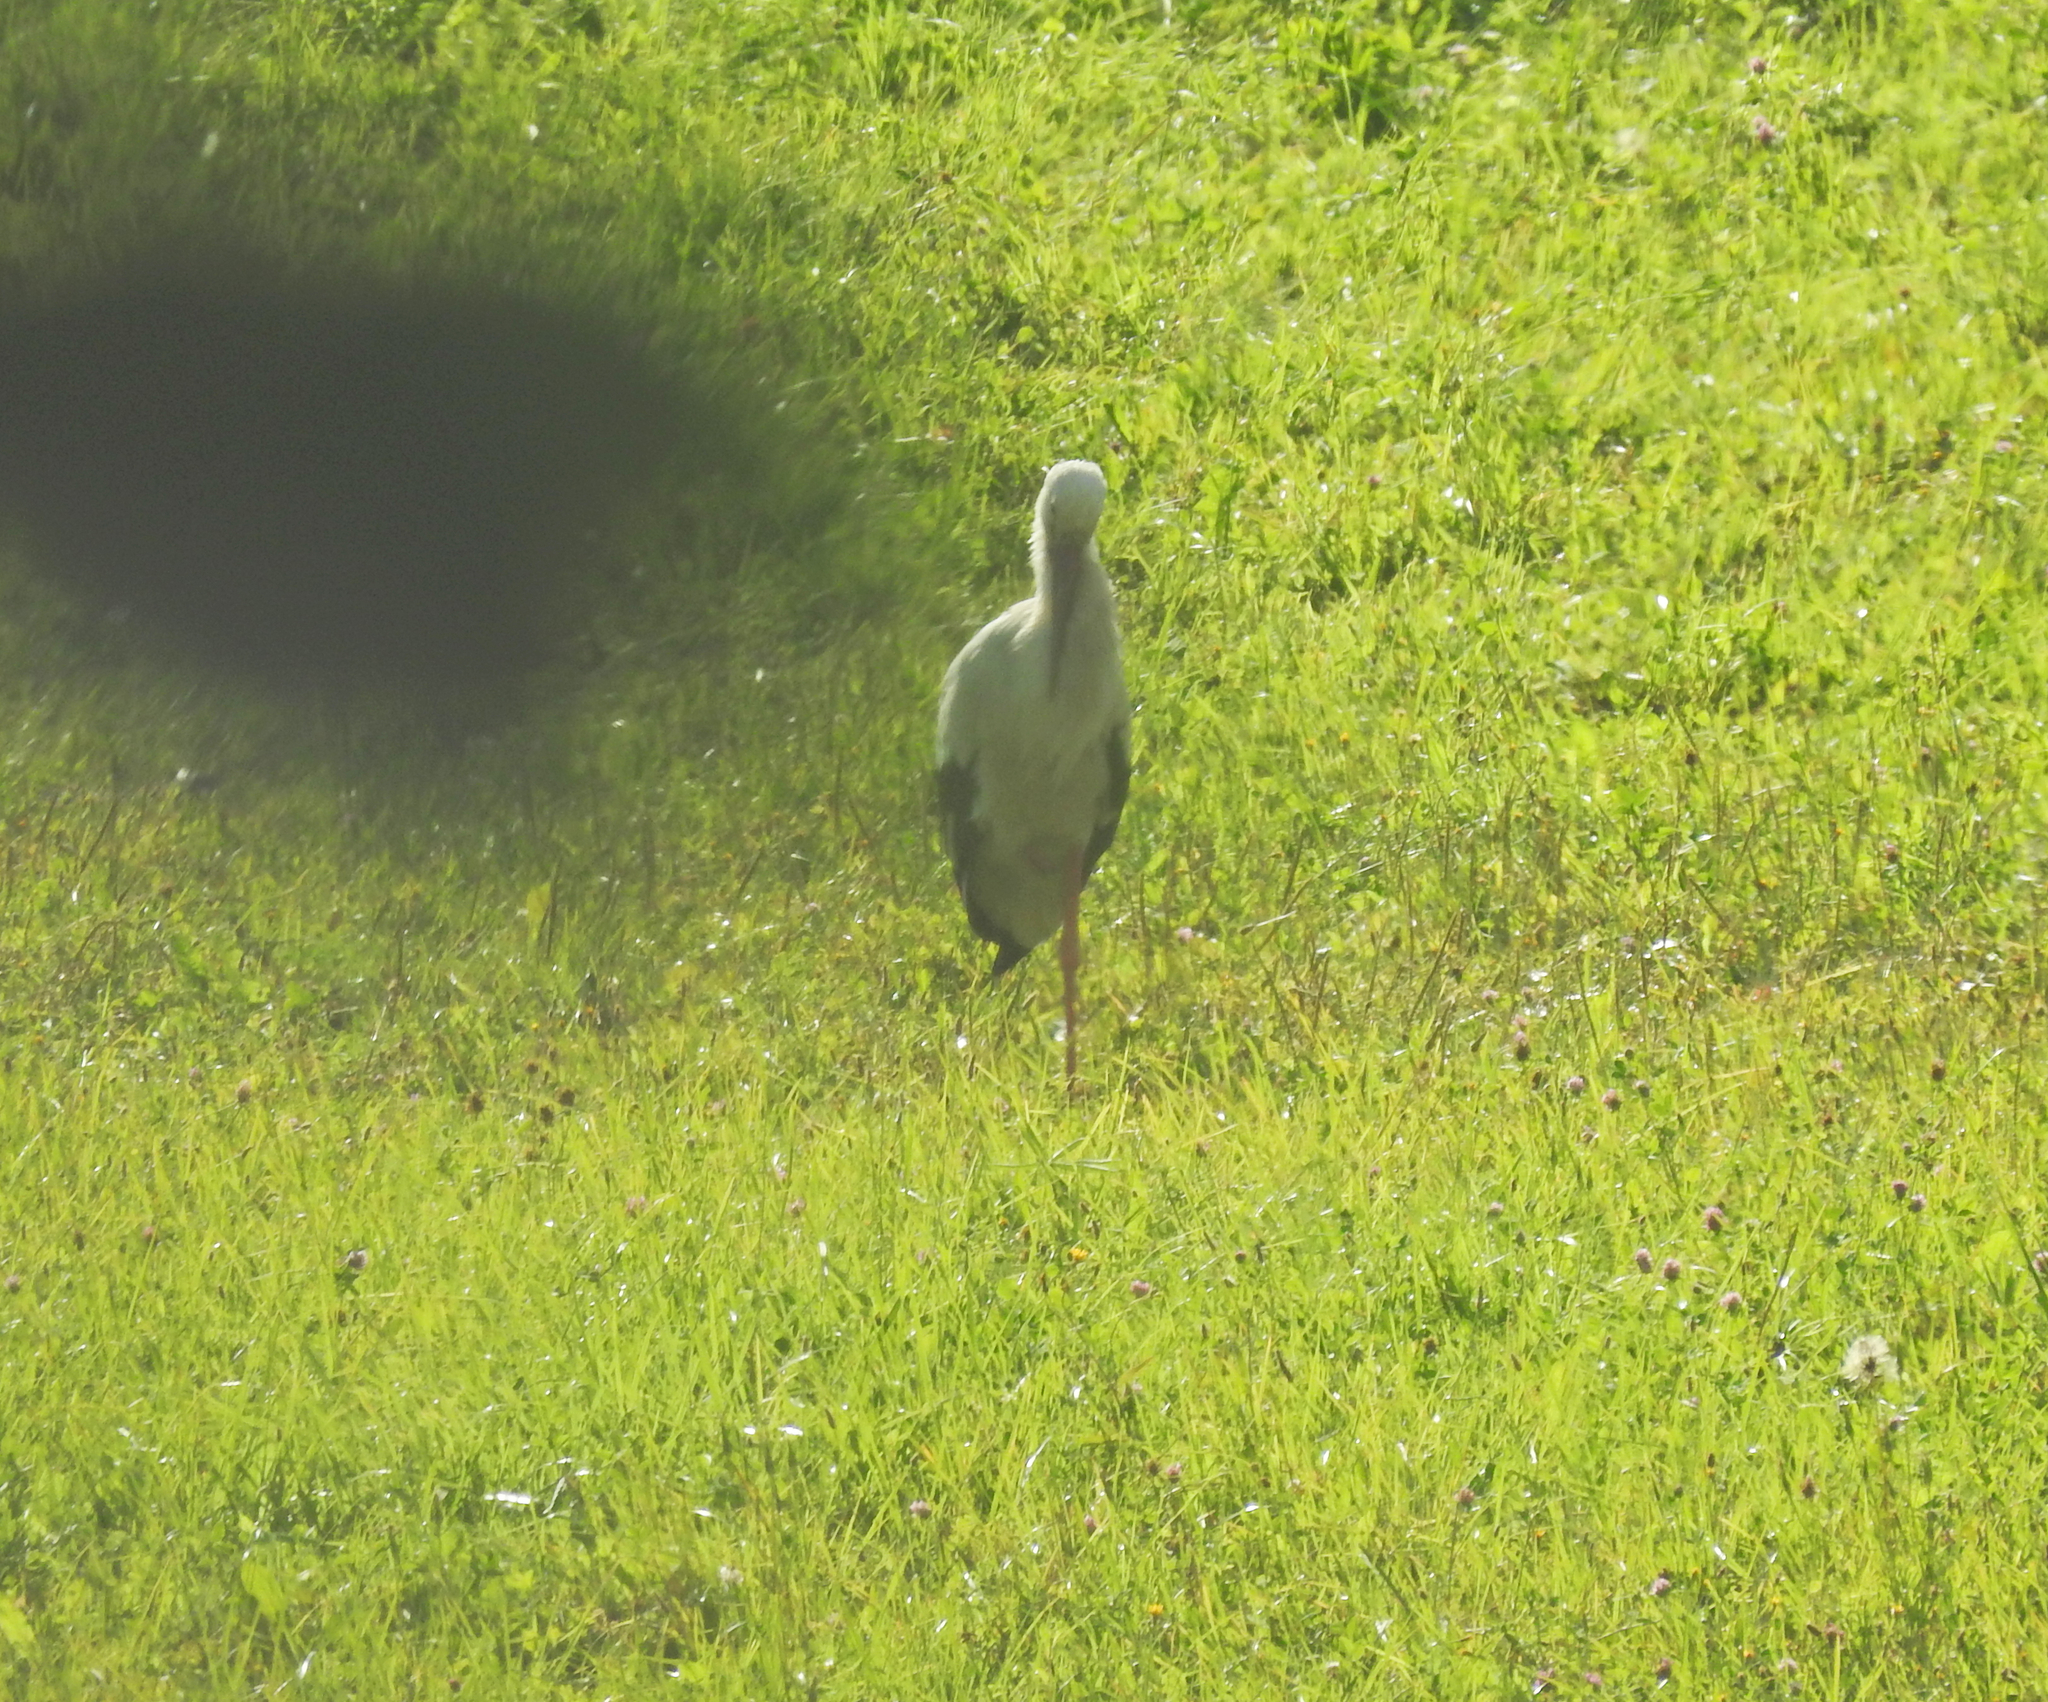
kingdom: Animalia
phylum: Chordata
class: Aves
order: Ciconiiformes
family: Ciconiidae
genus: Ciconia
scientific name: Ciconia ciconia
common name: White stork
